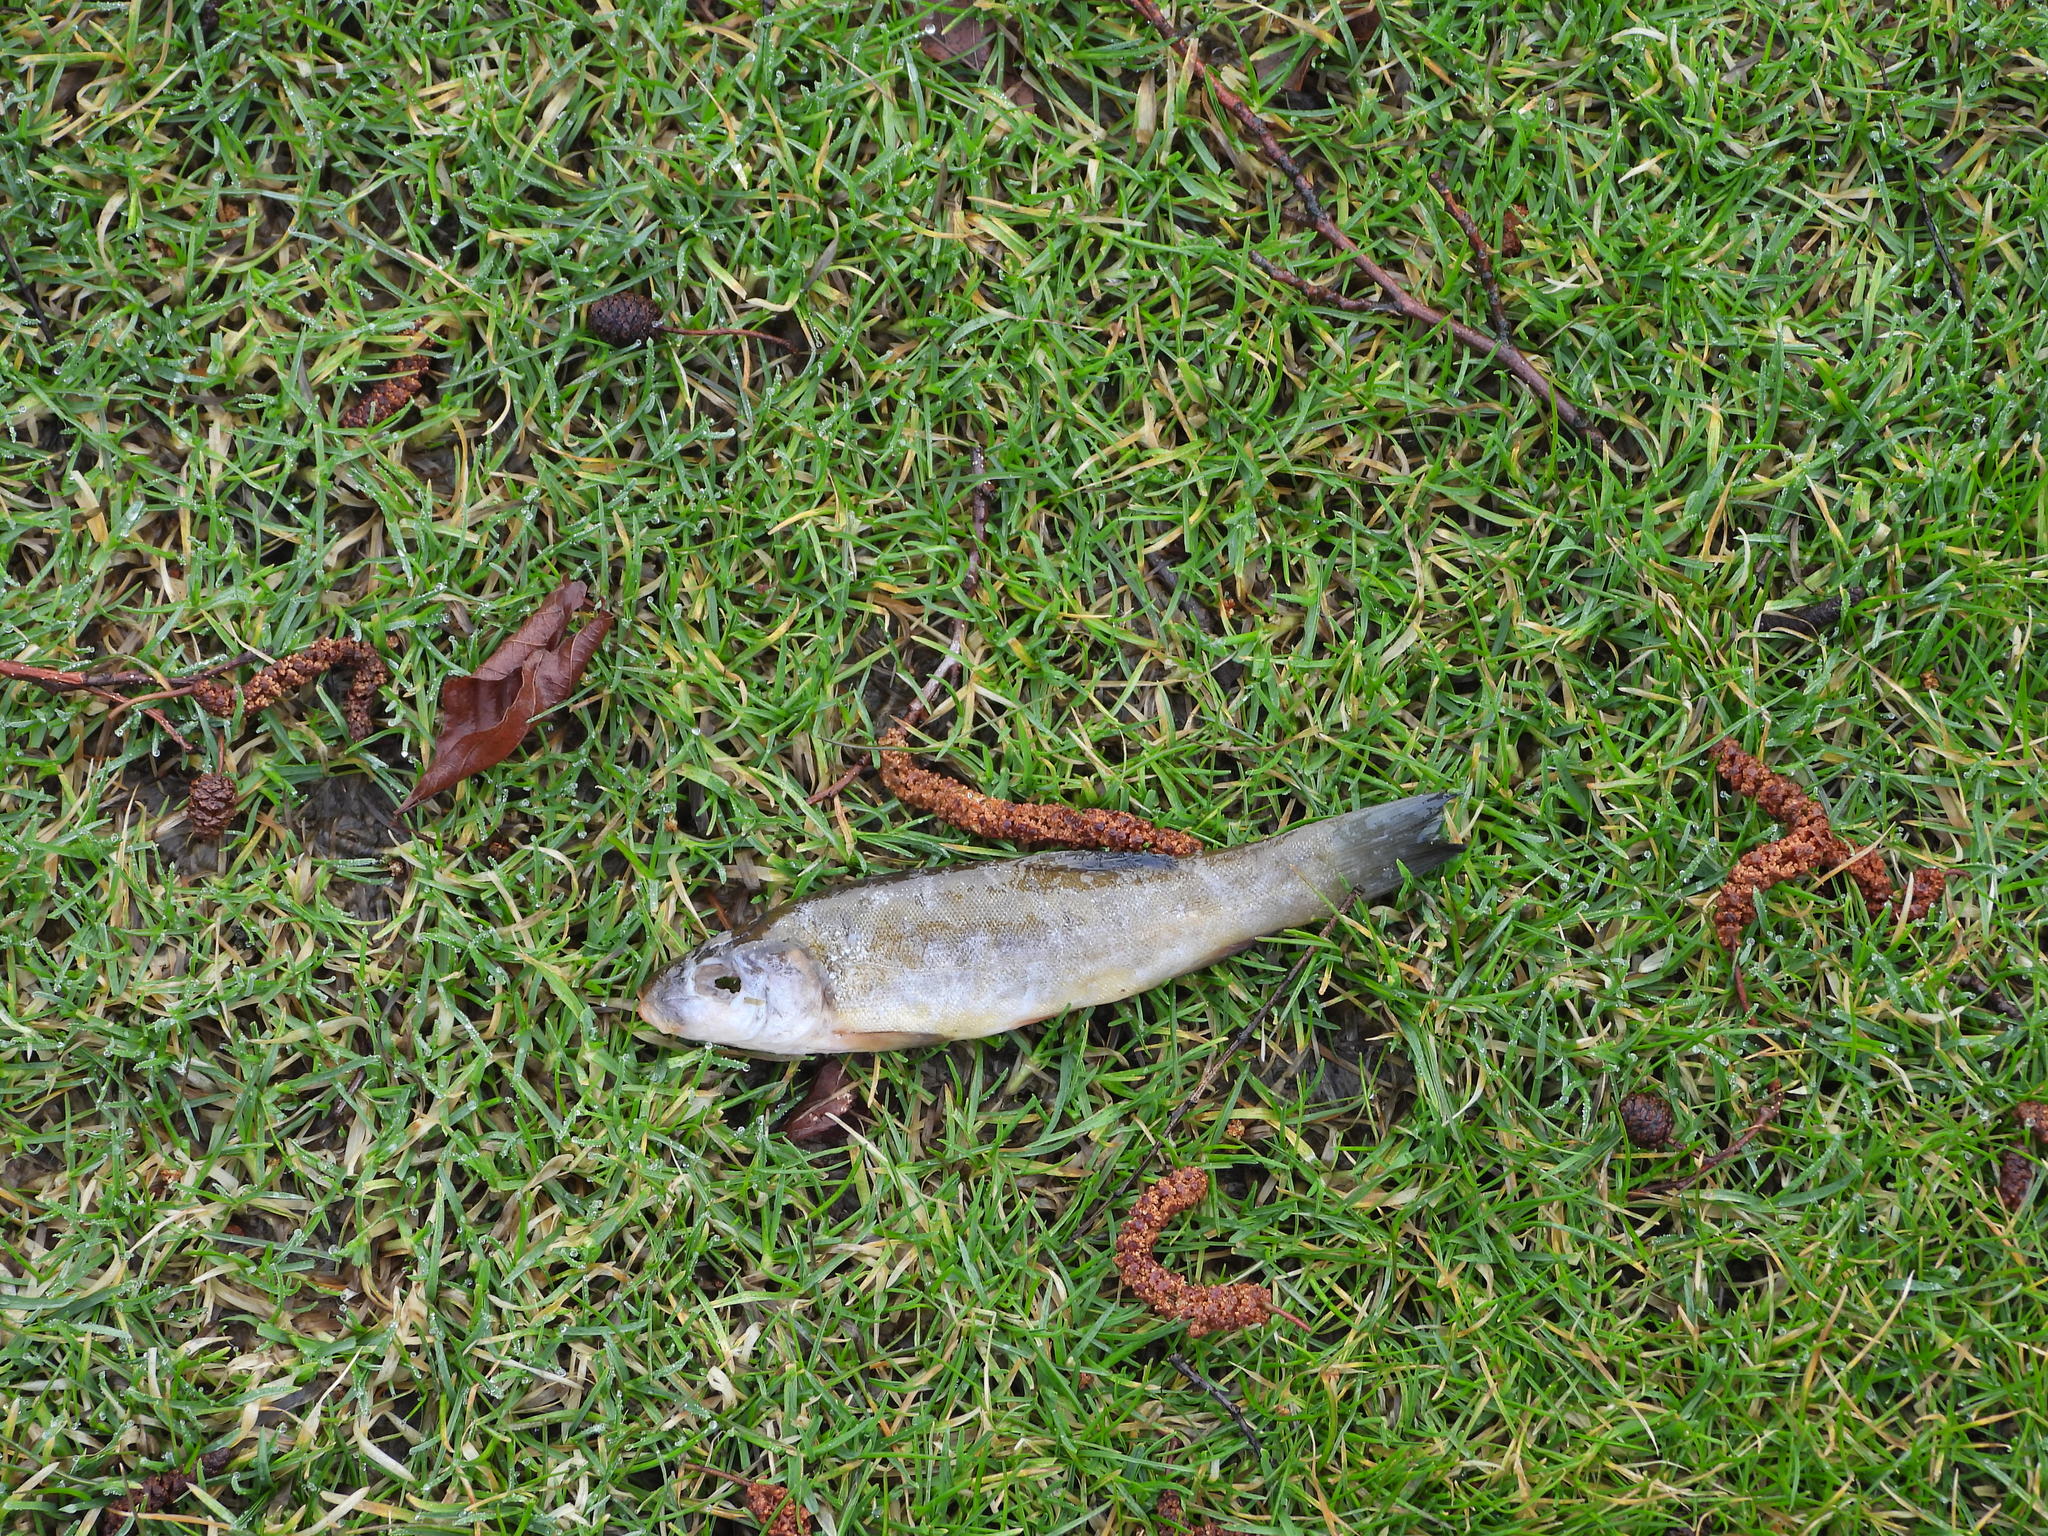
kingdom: Animalia
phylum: Chordata
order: Cypriniformes
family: Cyprinidae
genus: Tinca
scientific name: Tinca tinca
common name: Tench
